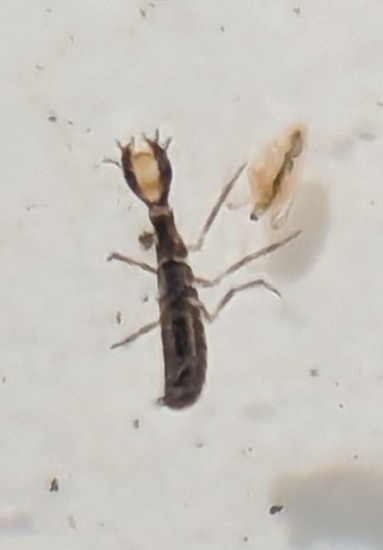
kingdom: Animalia
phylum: Arthropoda
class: Insecta
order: Coleoptera
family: Dytiscidae
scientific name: Dytiscidae
